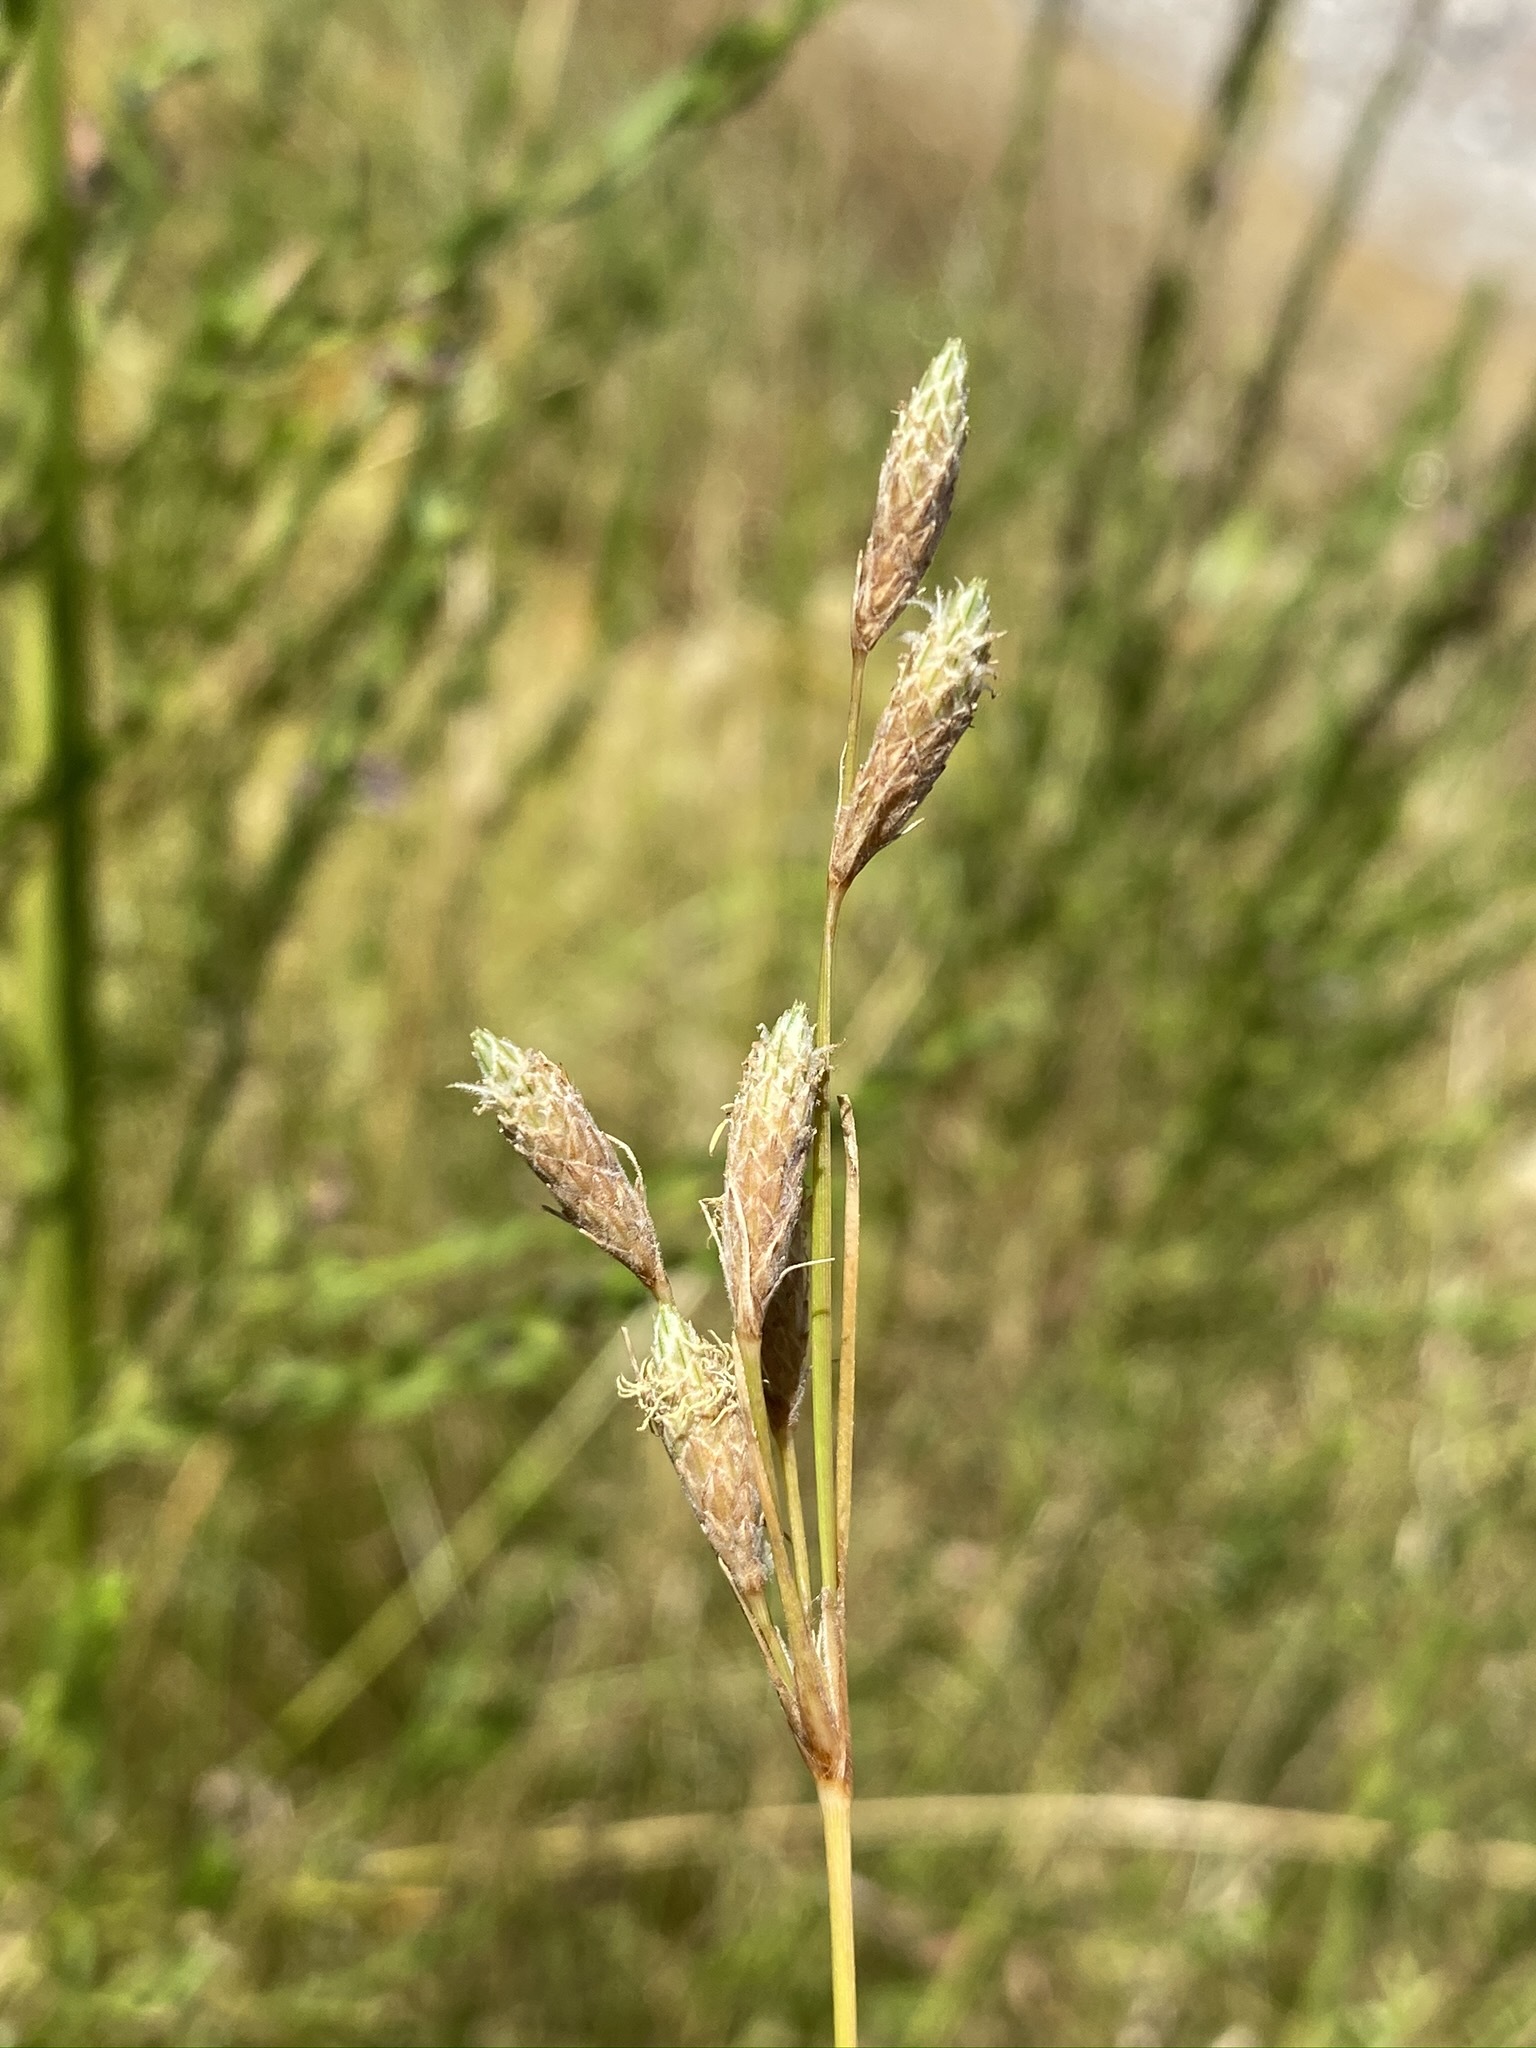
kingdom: Plantae
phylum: Tracheophyta
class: Liliopsida
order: Poales
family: Cyperaceae
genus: Fimbristylis
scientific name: Fimbristylis thermalis
